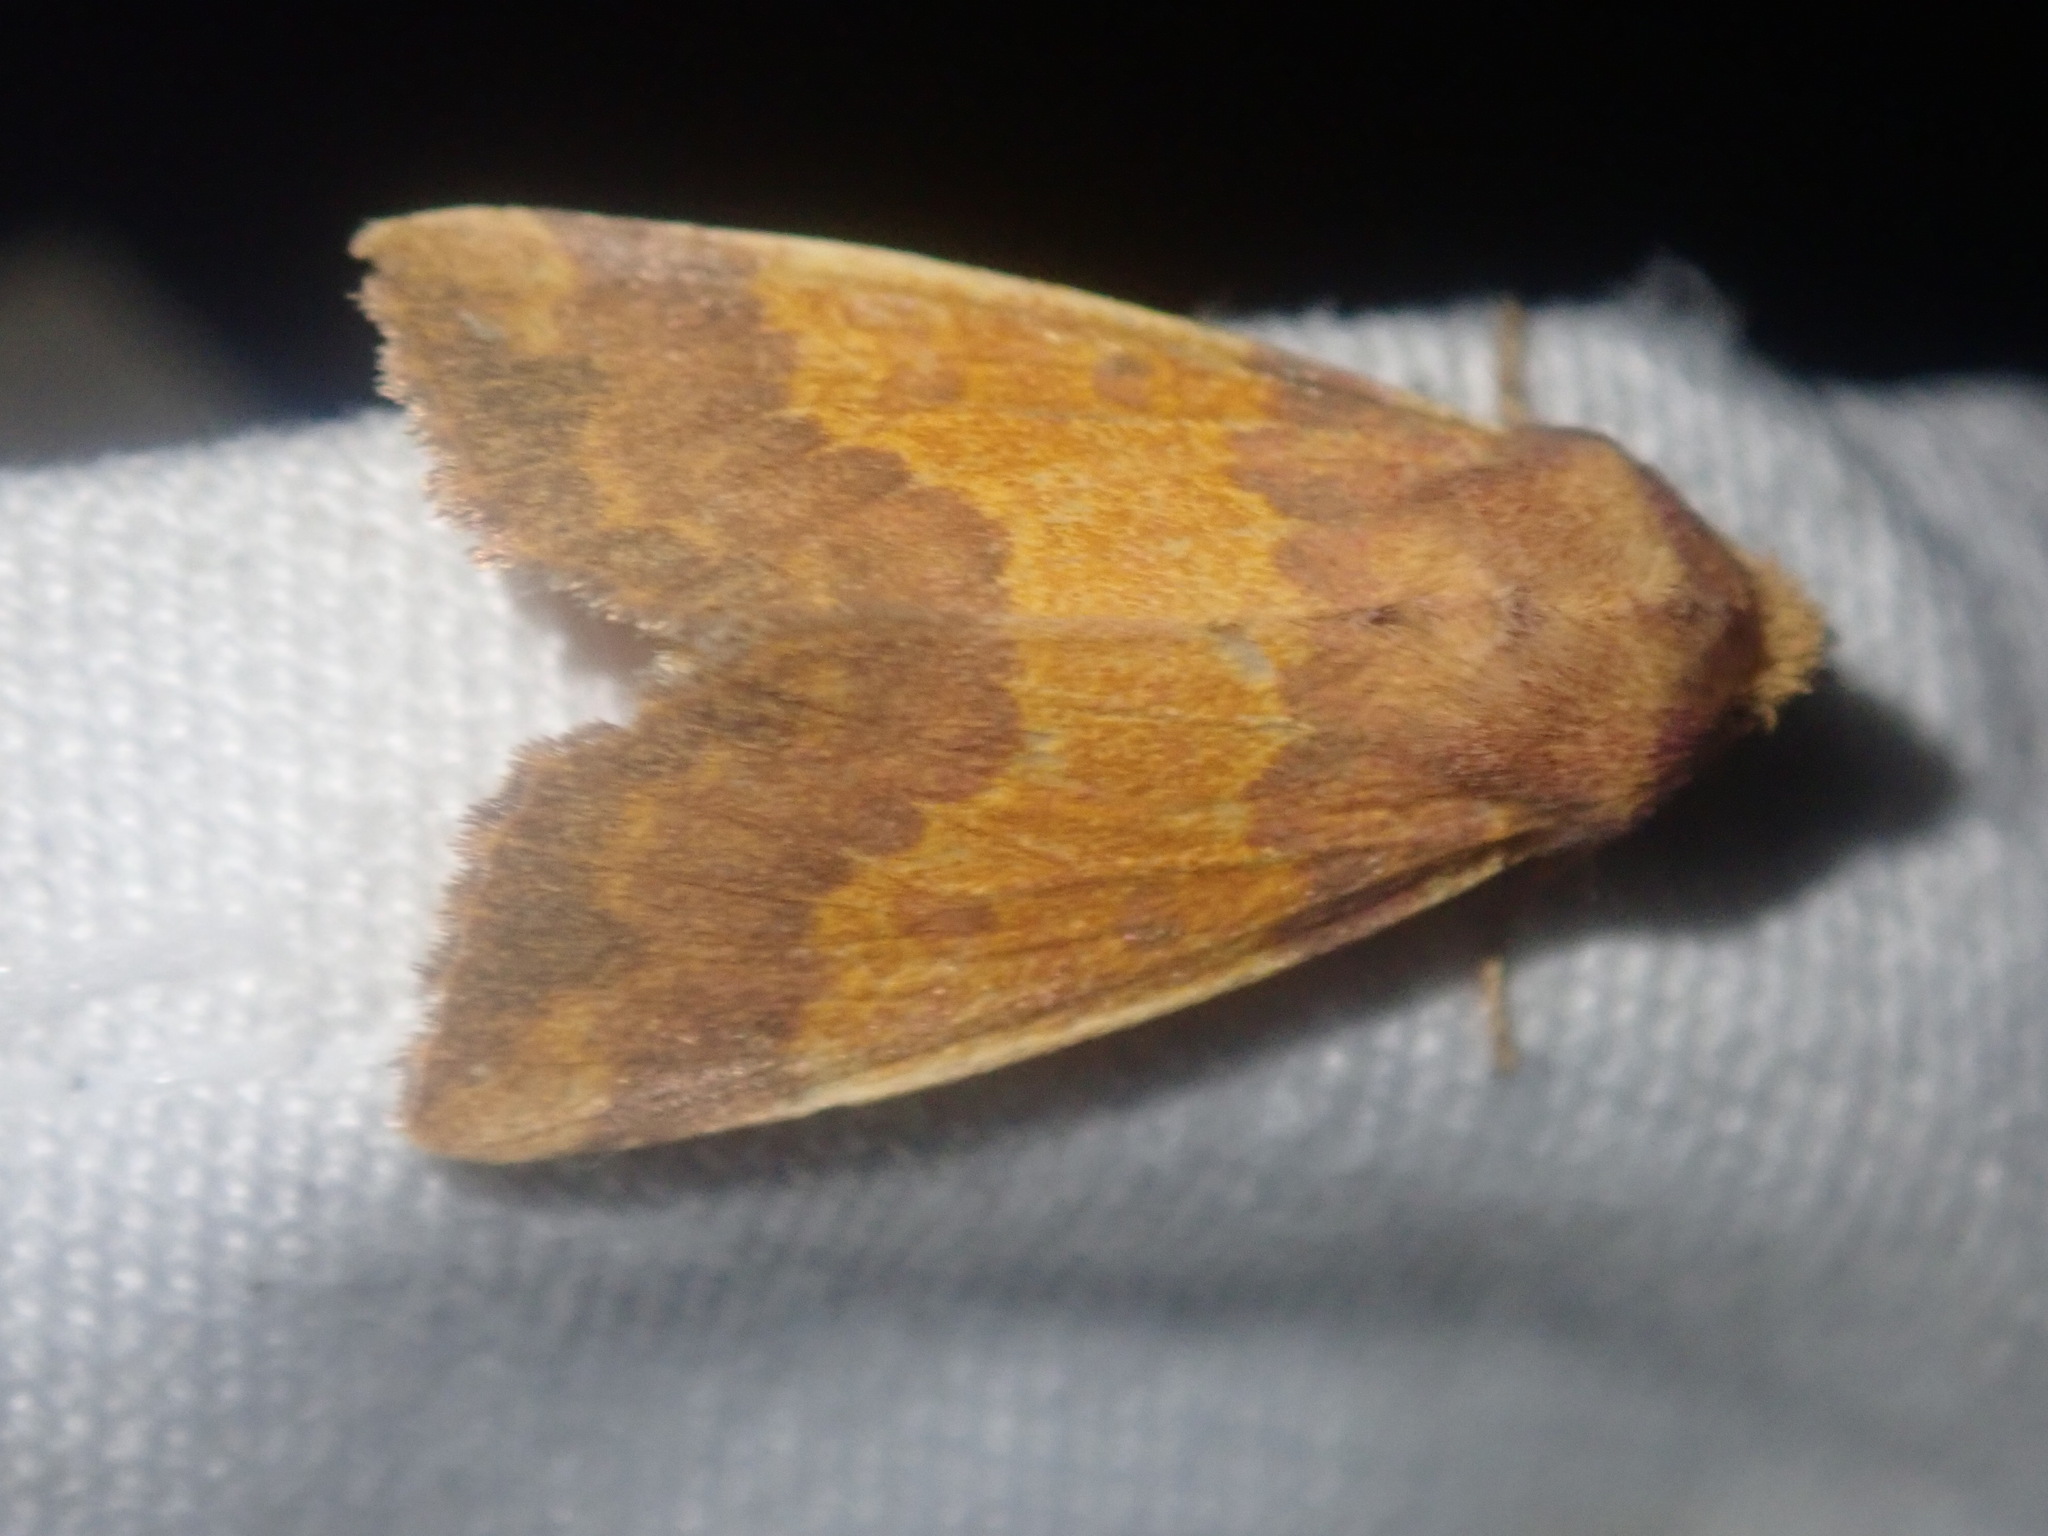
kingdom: Animalia
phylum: Arthropoda
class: Insecta
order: Lepidoptera
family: Noctuidae
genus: Tiliacea
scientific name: Tiliacea aurago
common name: Barred sallow
